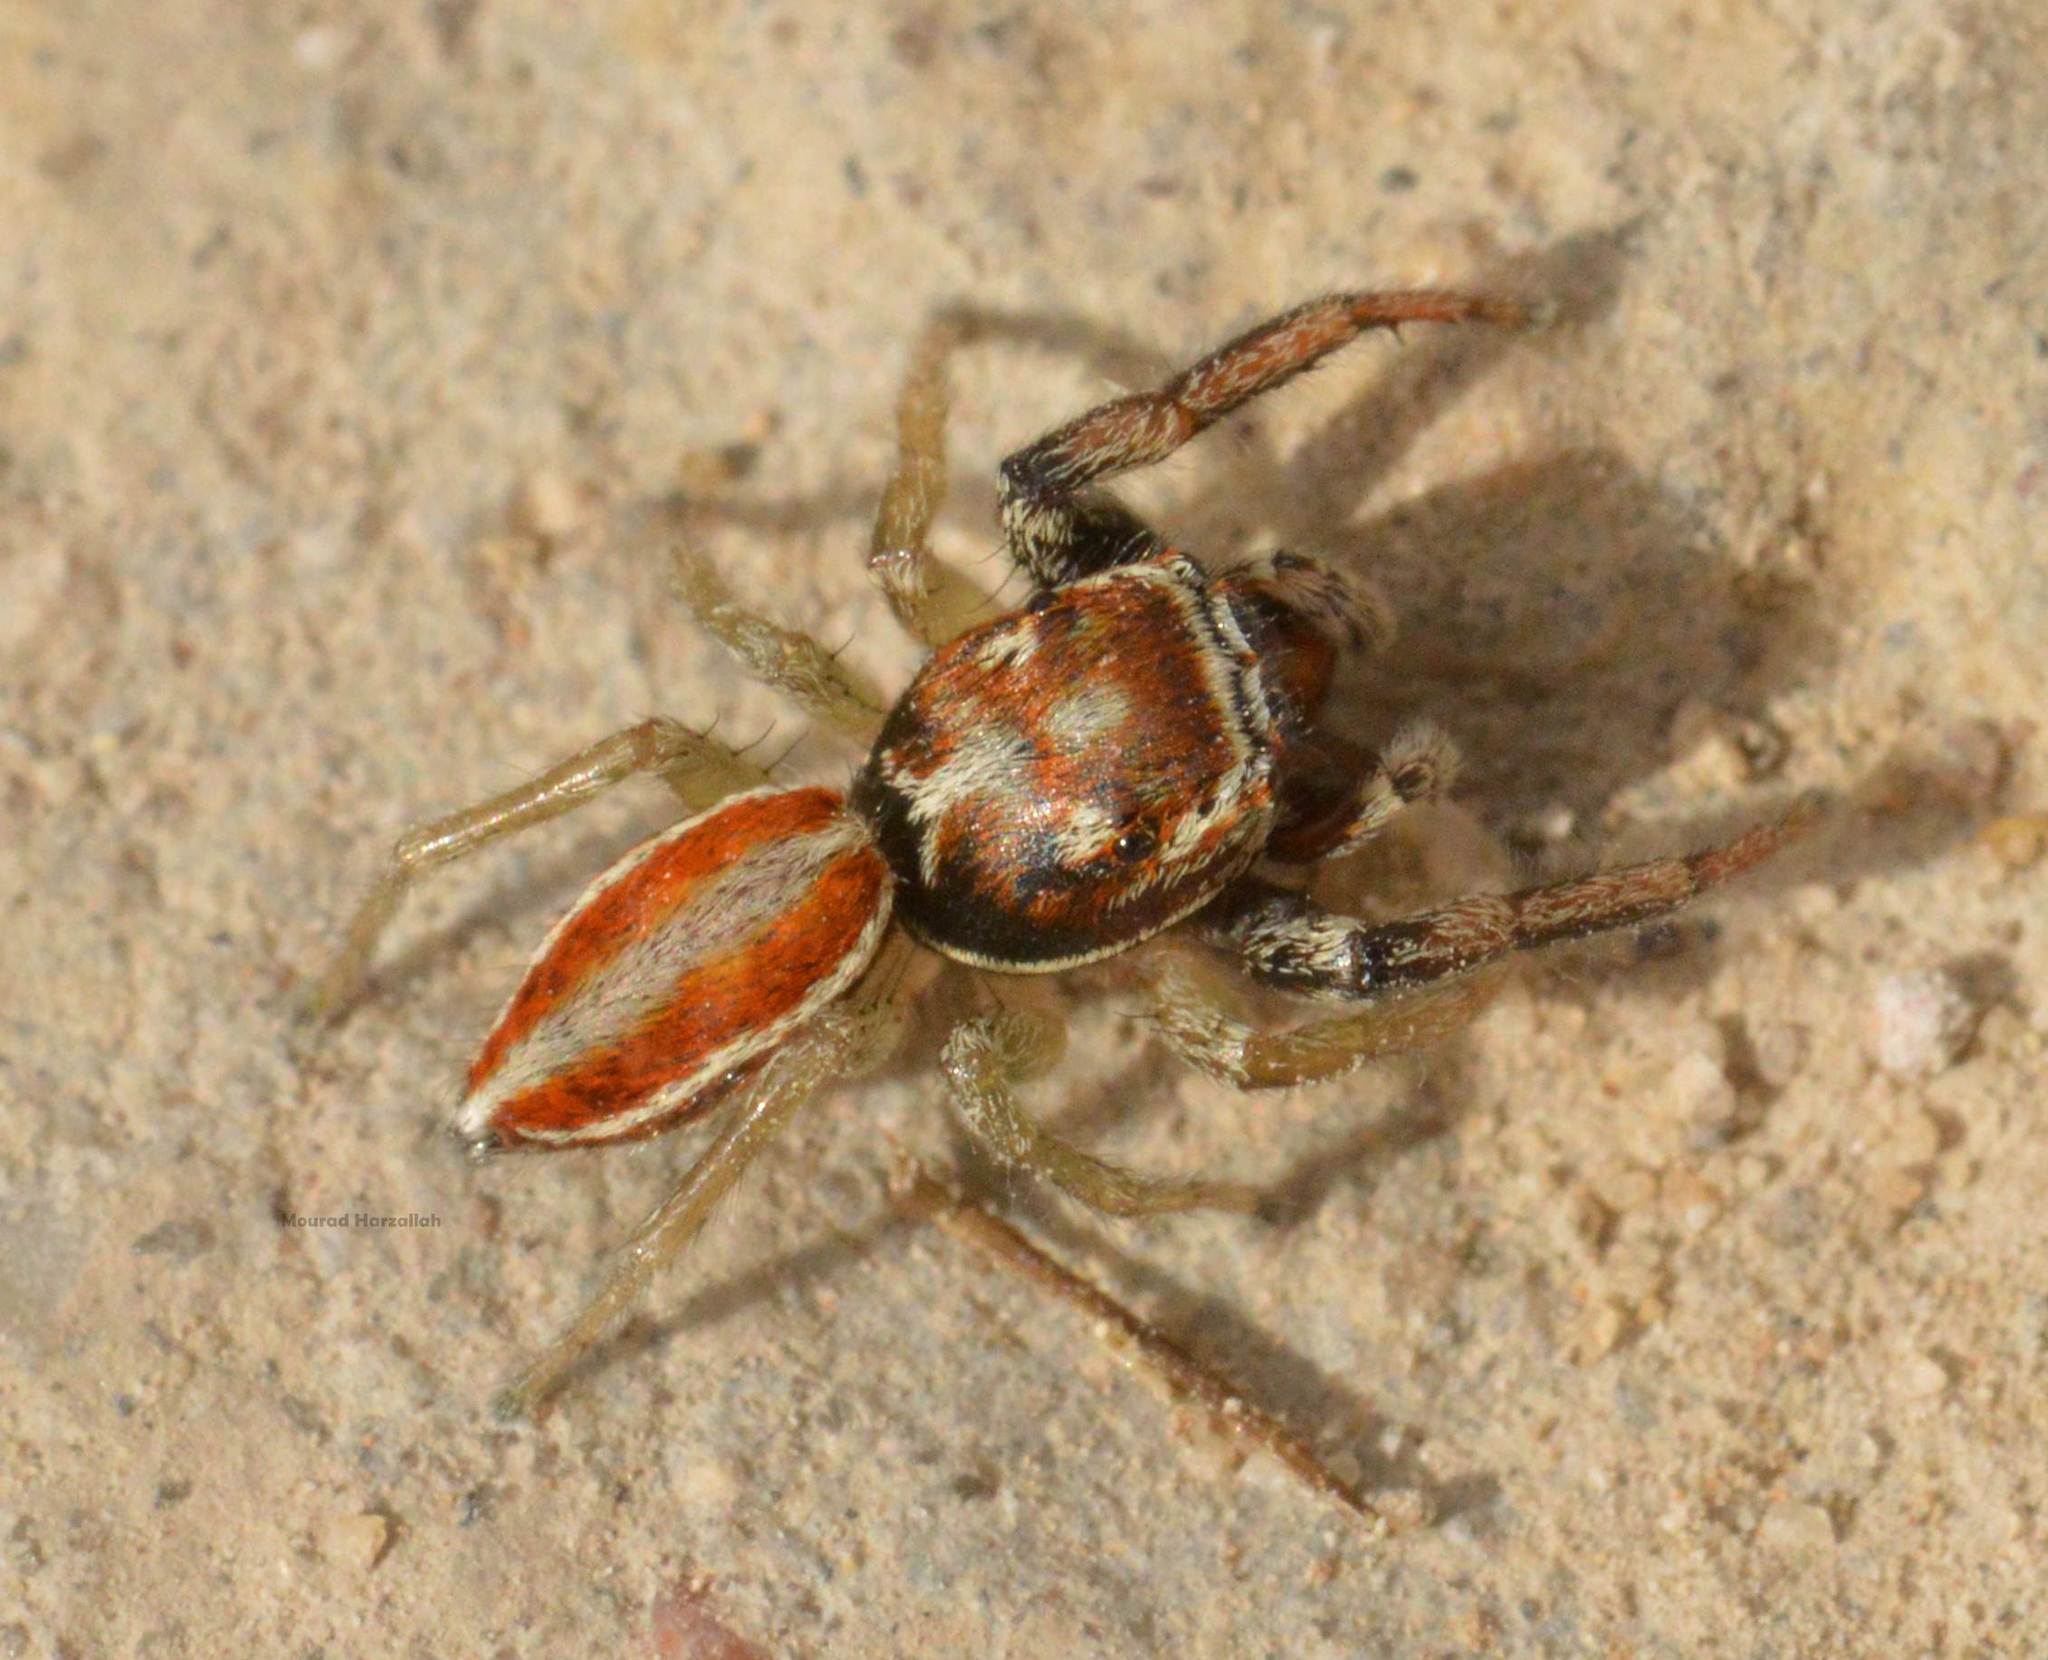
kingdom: Animalia
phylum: Arthropoda
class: Arachnida
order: Araneae
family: Salticidae
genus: Icius
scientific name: Icius hamatus
